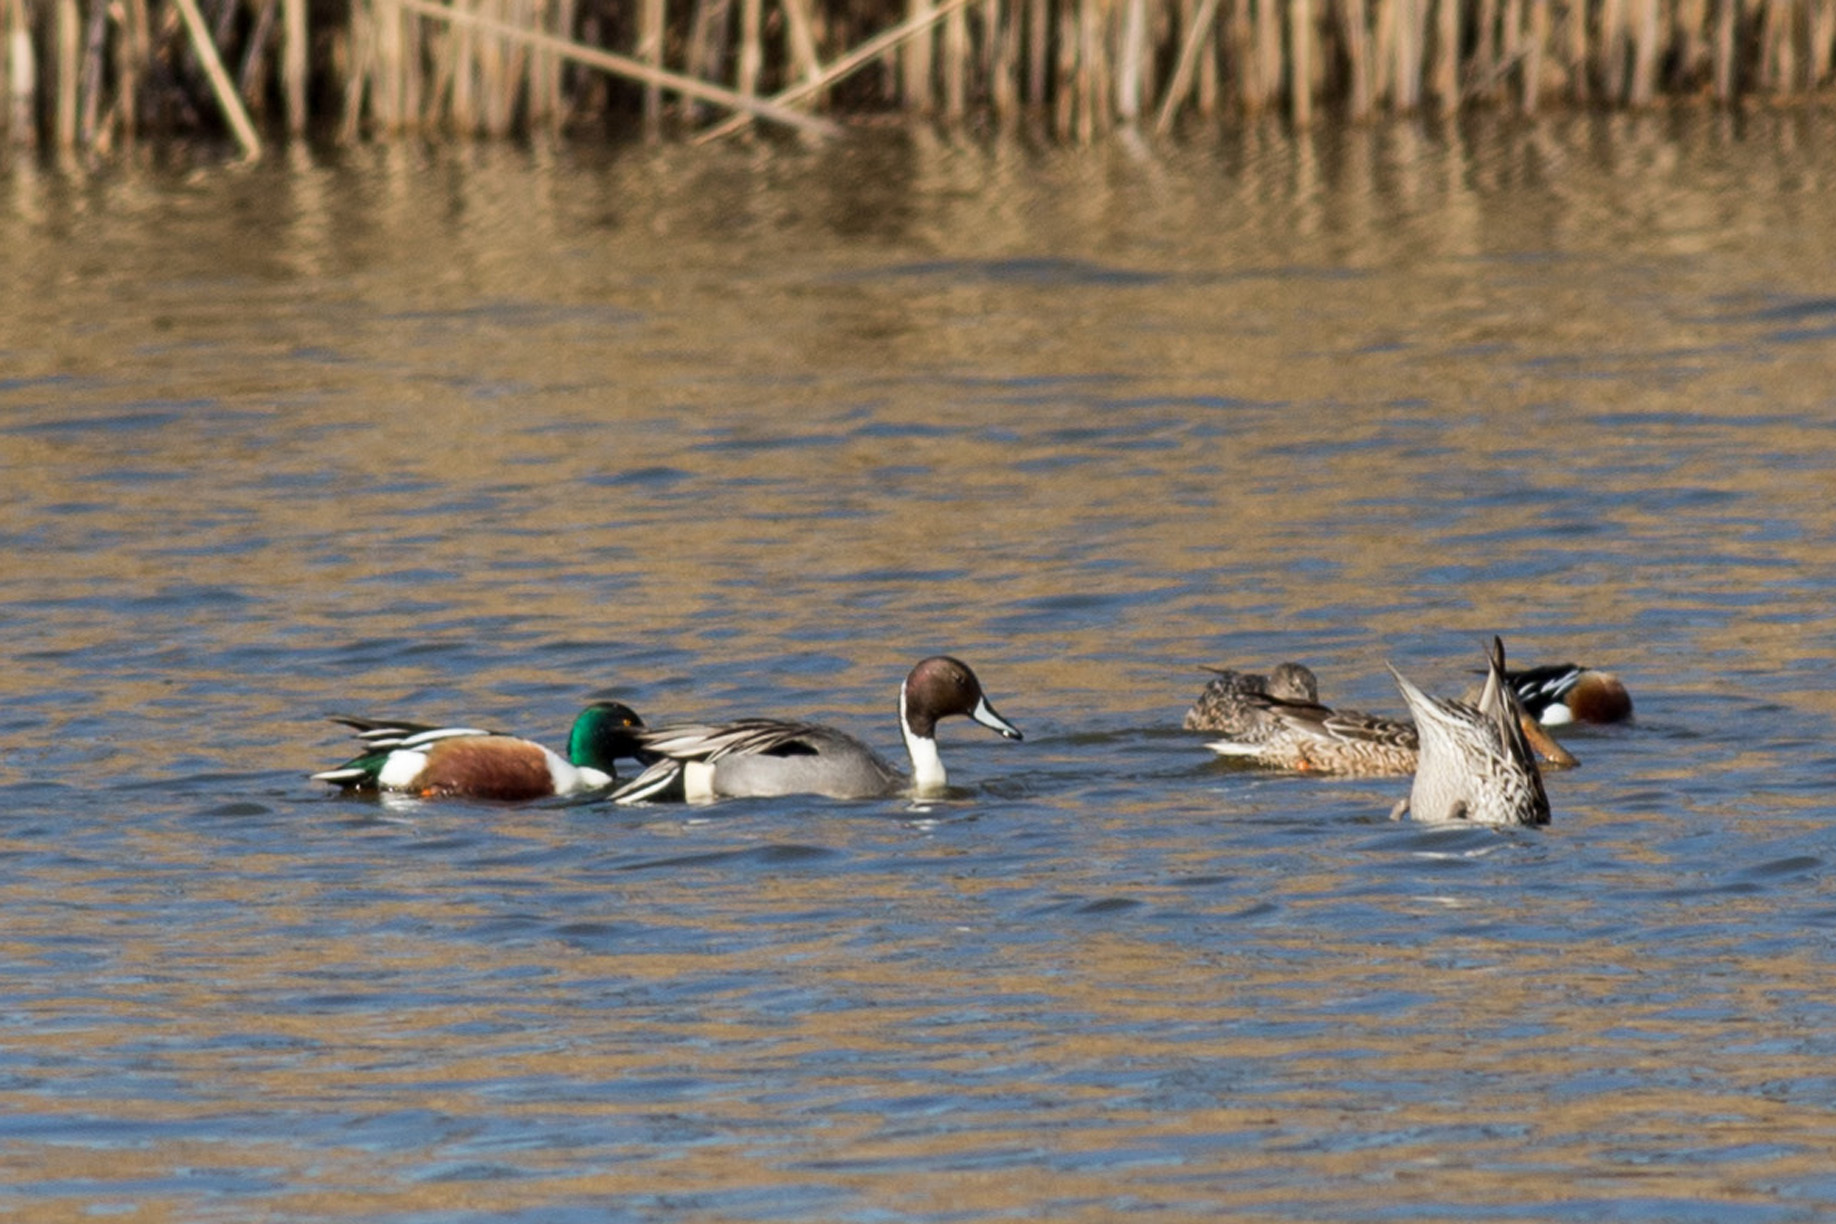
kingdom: Animalia
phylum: Chordata
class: Aves
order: Anseriformes
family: Anatidae
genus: Anas
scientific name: Anas acuta
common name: Northern pintail
